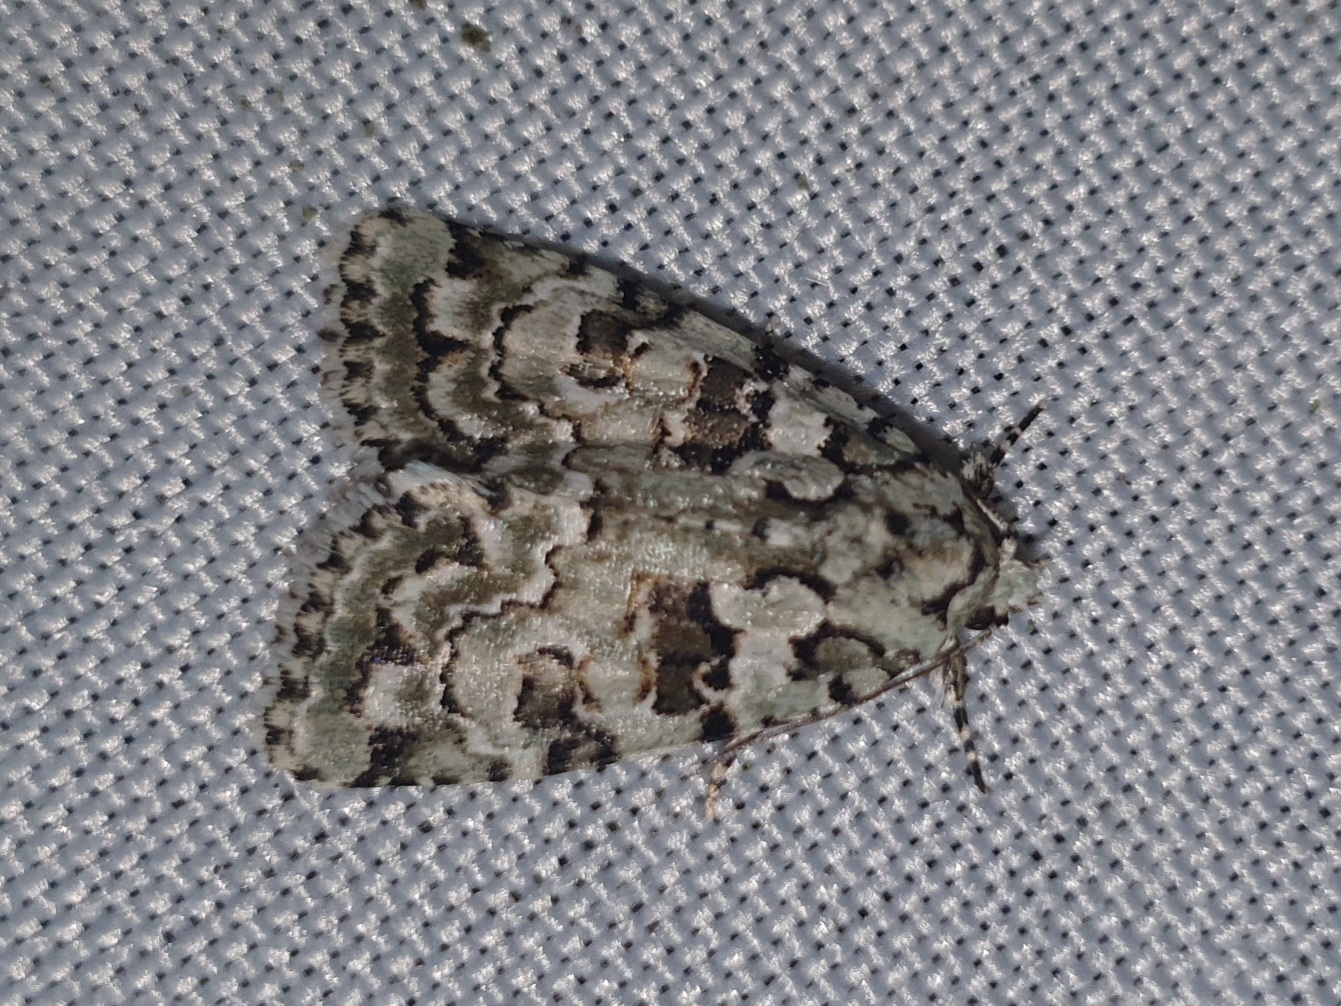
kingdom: Animalia
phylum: Arthropoda
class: Insecta
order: Lepidoptera
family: Noctuidae
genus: Nyctobrya
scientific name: Nyctobrya muralis
